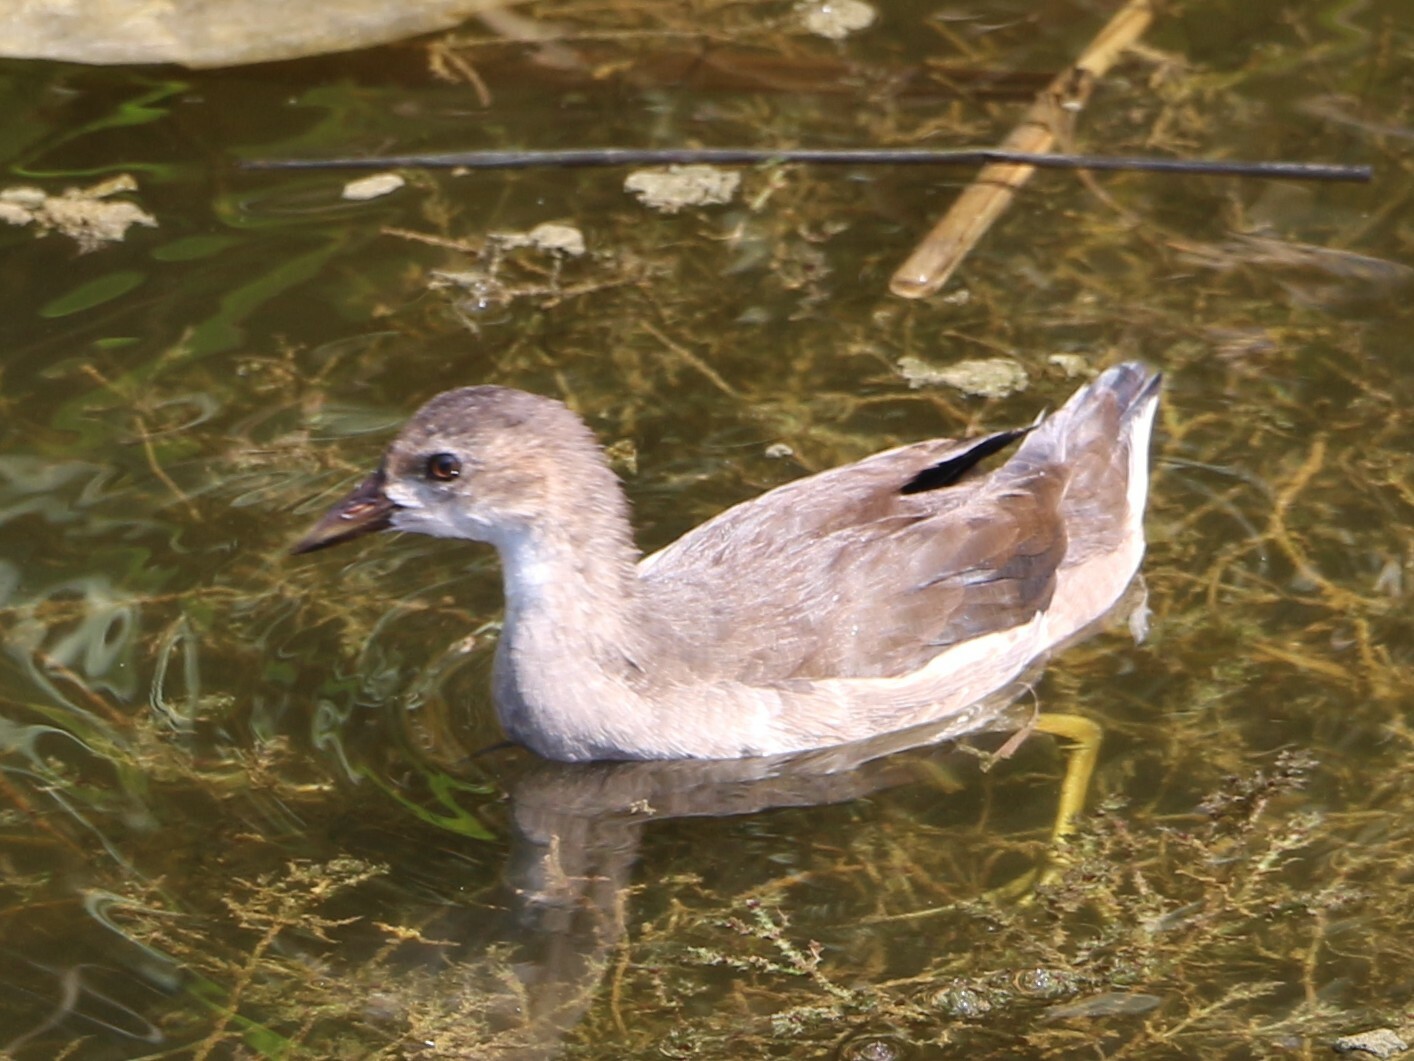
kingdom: Animalia
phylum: Chordata
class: Aves
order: Gruiformes
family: Rallidae
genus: Gallinula
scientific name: Gallinula chloropus
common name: Common moorhen
